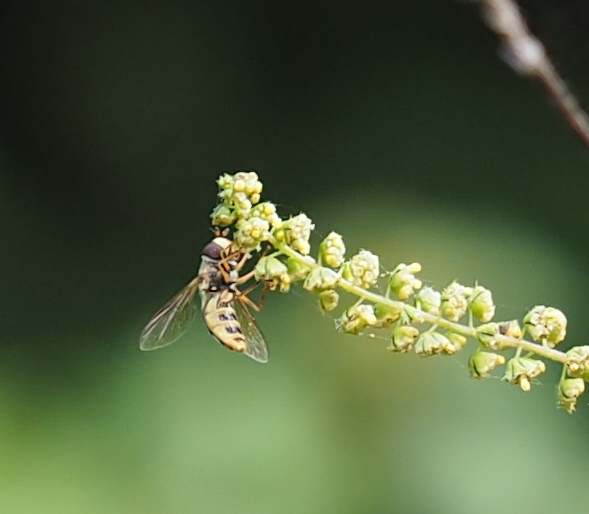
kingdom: Animalia
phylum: Arthropoda
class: Insecta
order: Diptera
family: Syrphidae
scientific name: Syrphidae
